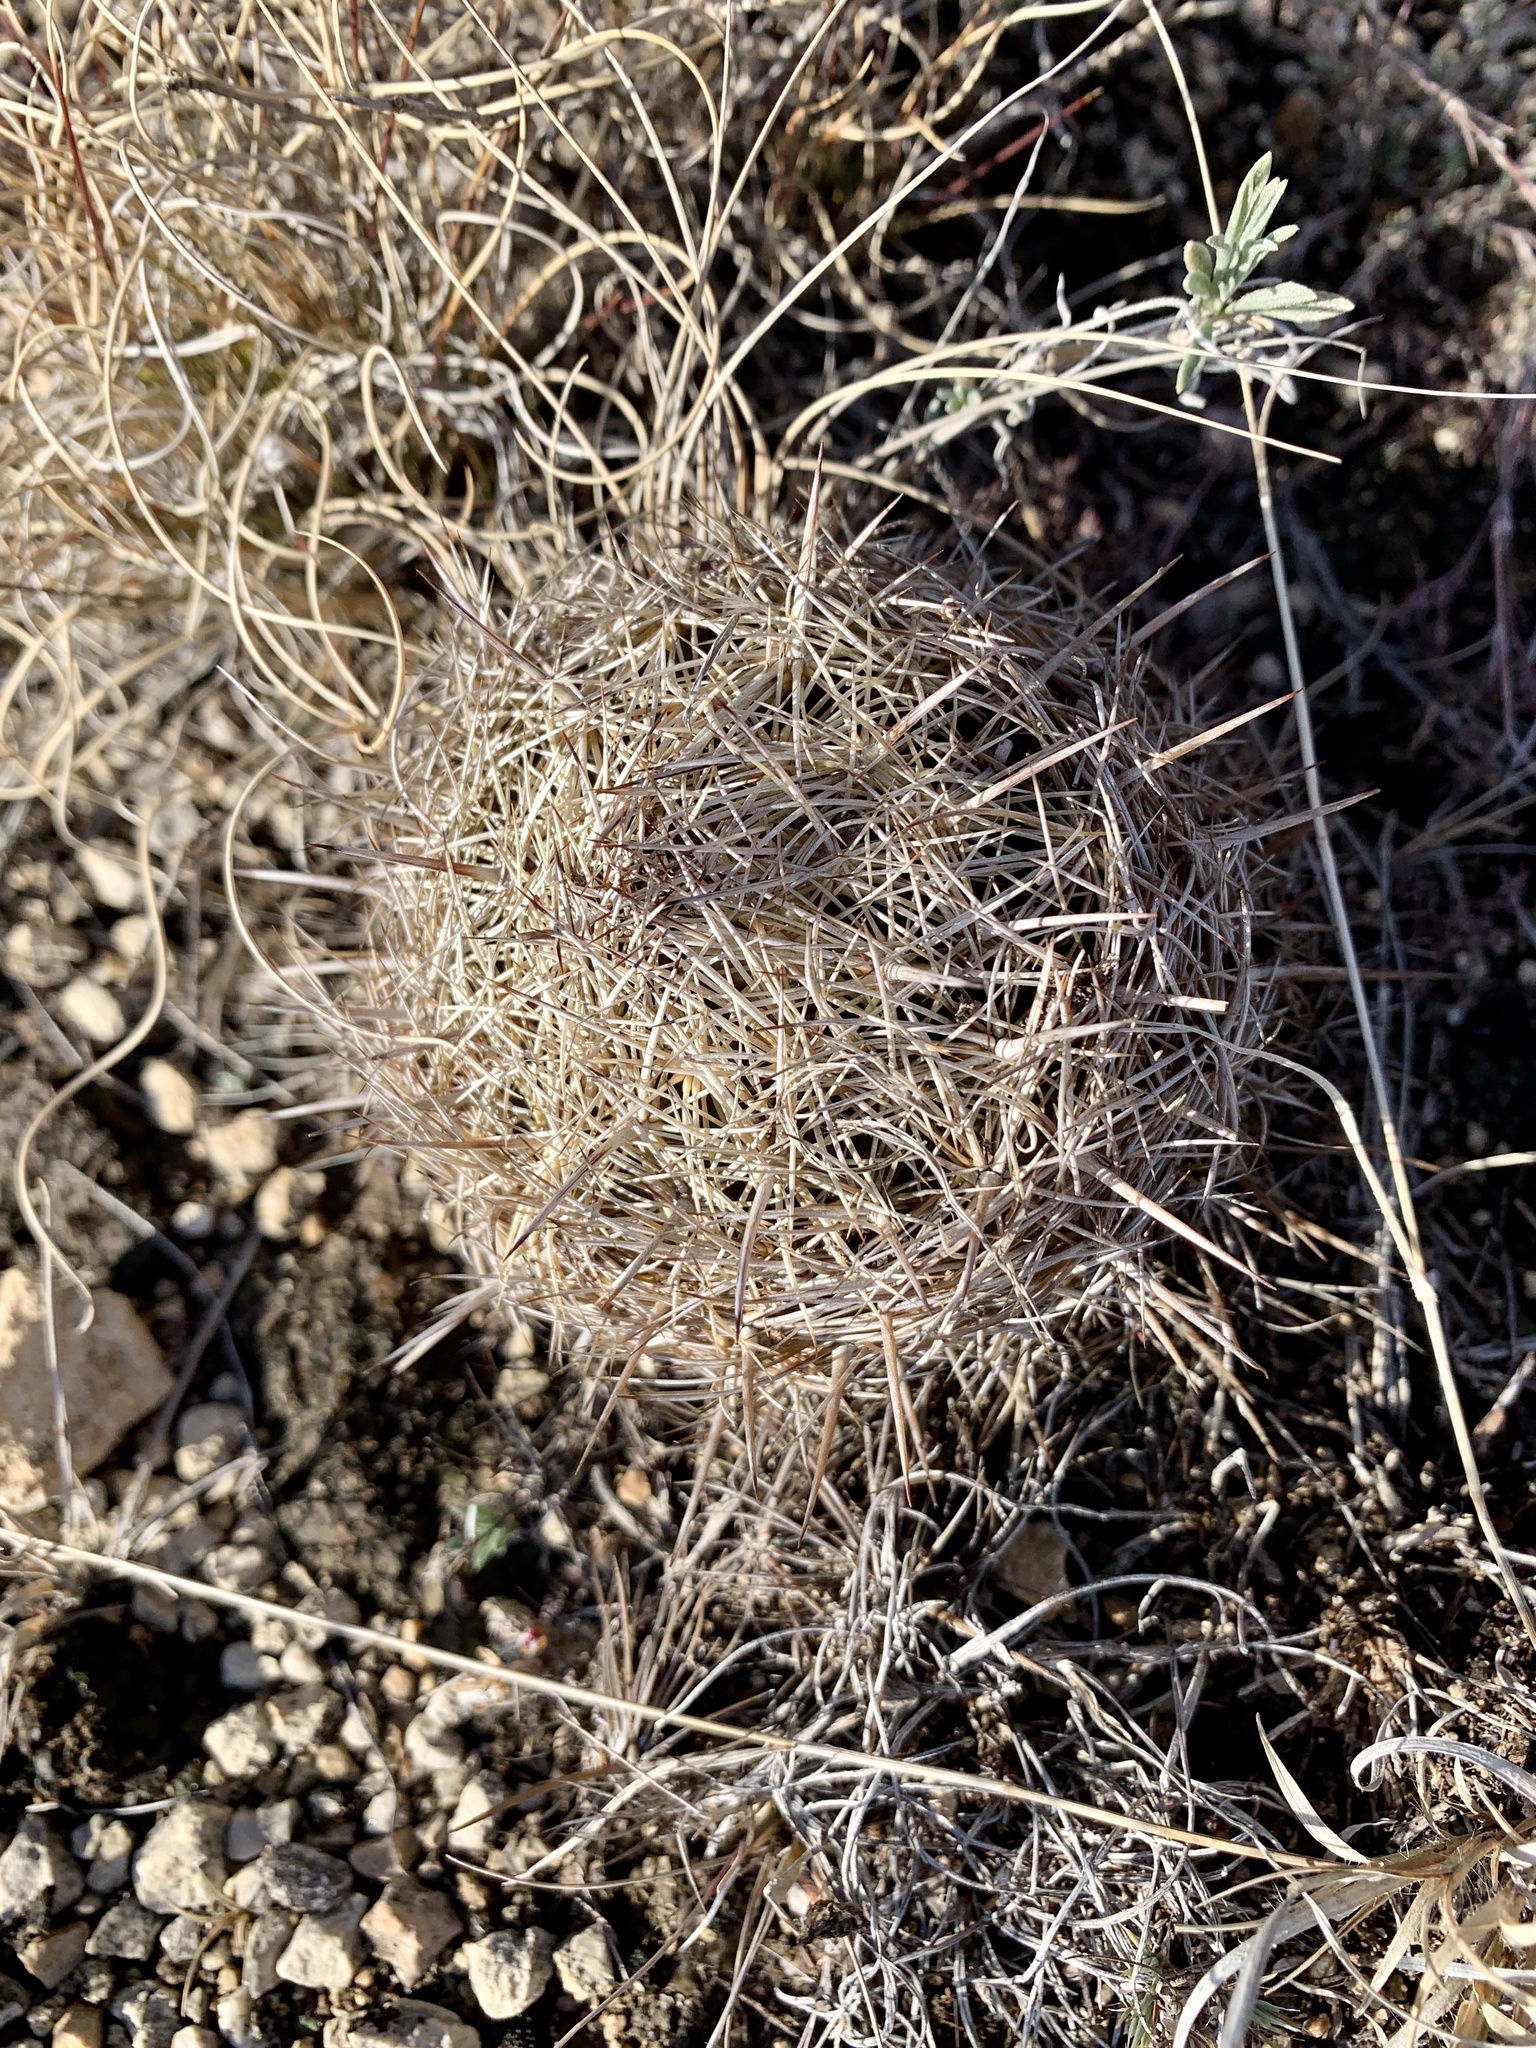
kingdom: Plantae
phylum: Tracheophyta
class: Magnoliopsida
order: Caryophyllales
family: Cactaceae
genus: Coryphantha
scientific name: Coryphantha echinus
